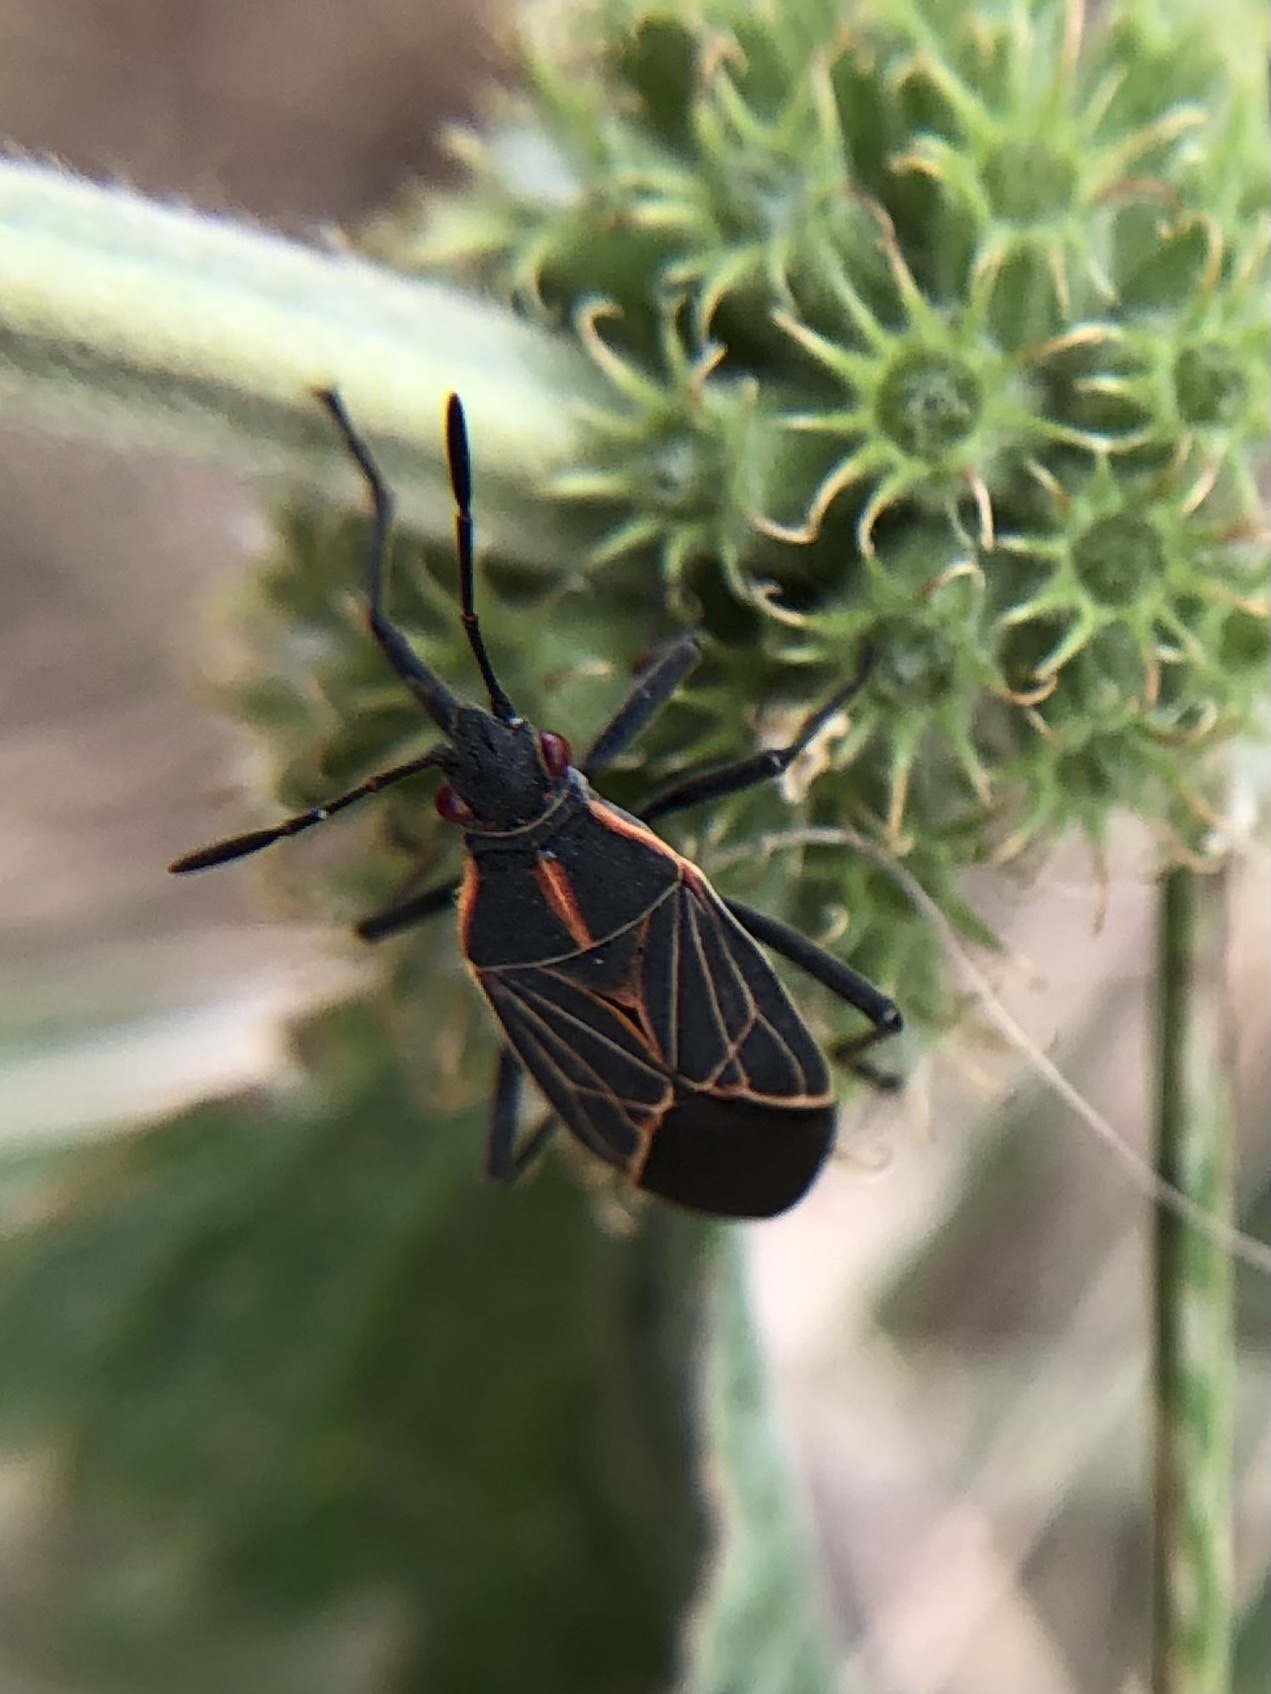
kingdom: Animalia
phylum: Arthropoda
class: Insecta
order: Hemiptera
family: Rhopalidae
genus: Boisea
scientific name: Boisea rubrolineata
